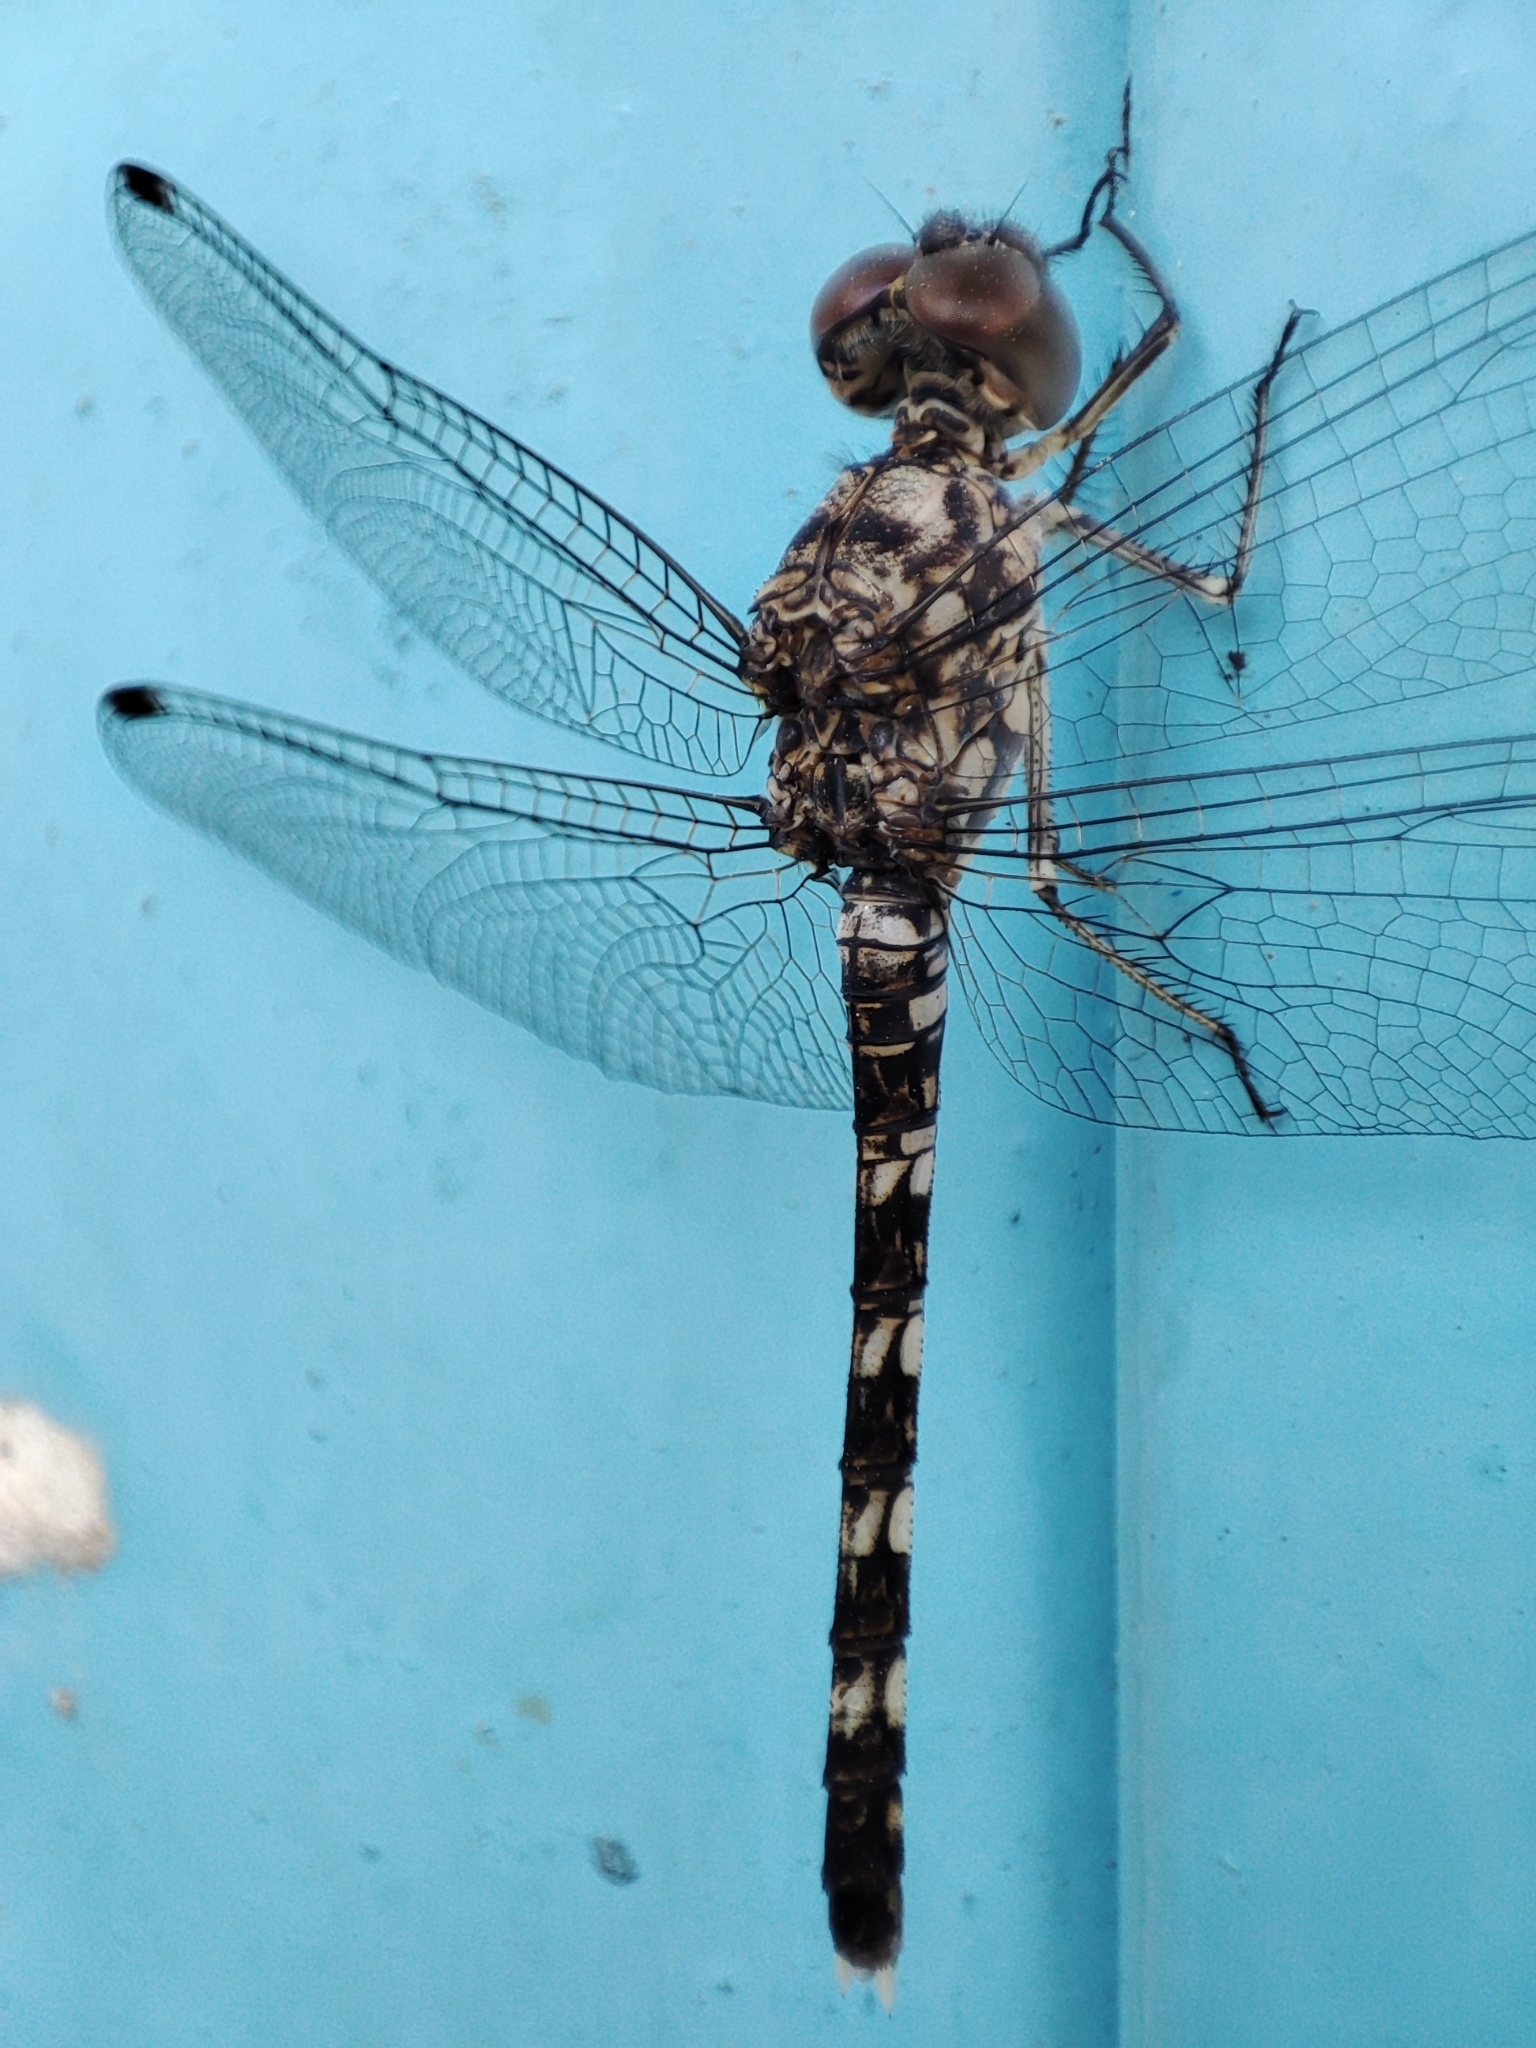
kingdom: Animalia
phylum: Arthropoda
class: Insecta
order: Odonata
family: Libellulidae
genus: Bradinopyga
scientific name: Bradinopyga geminata
